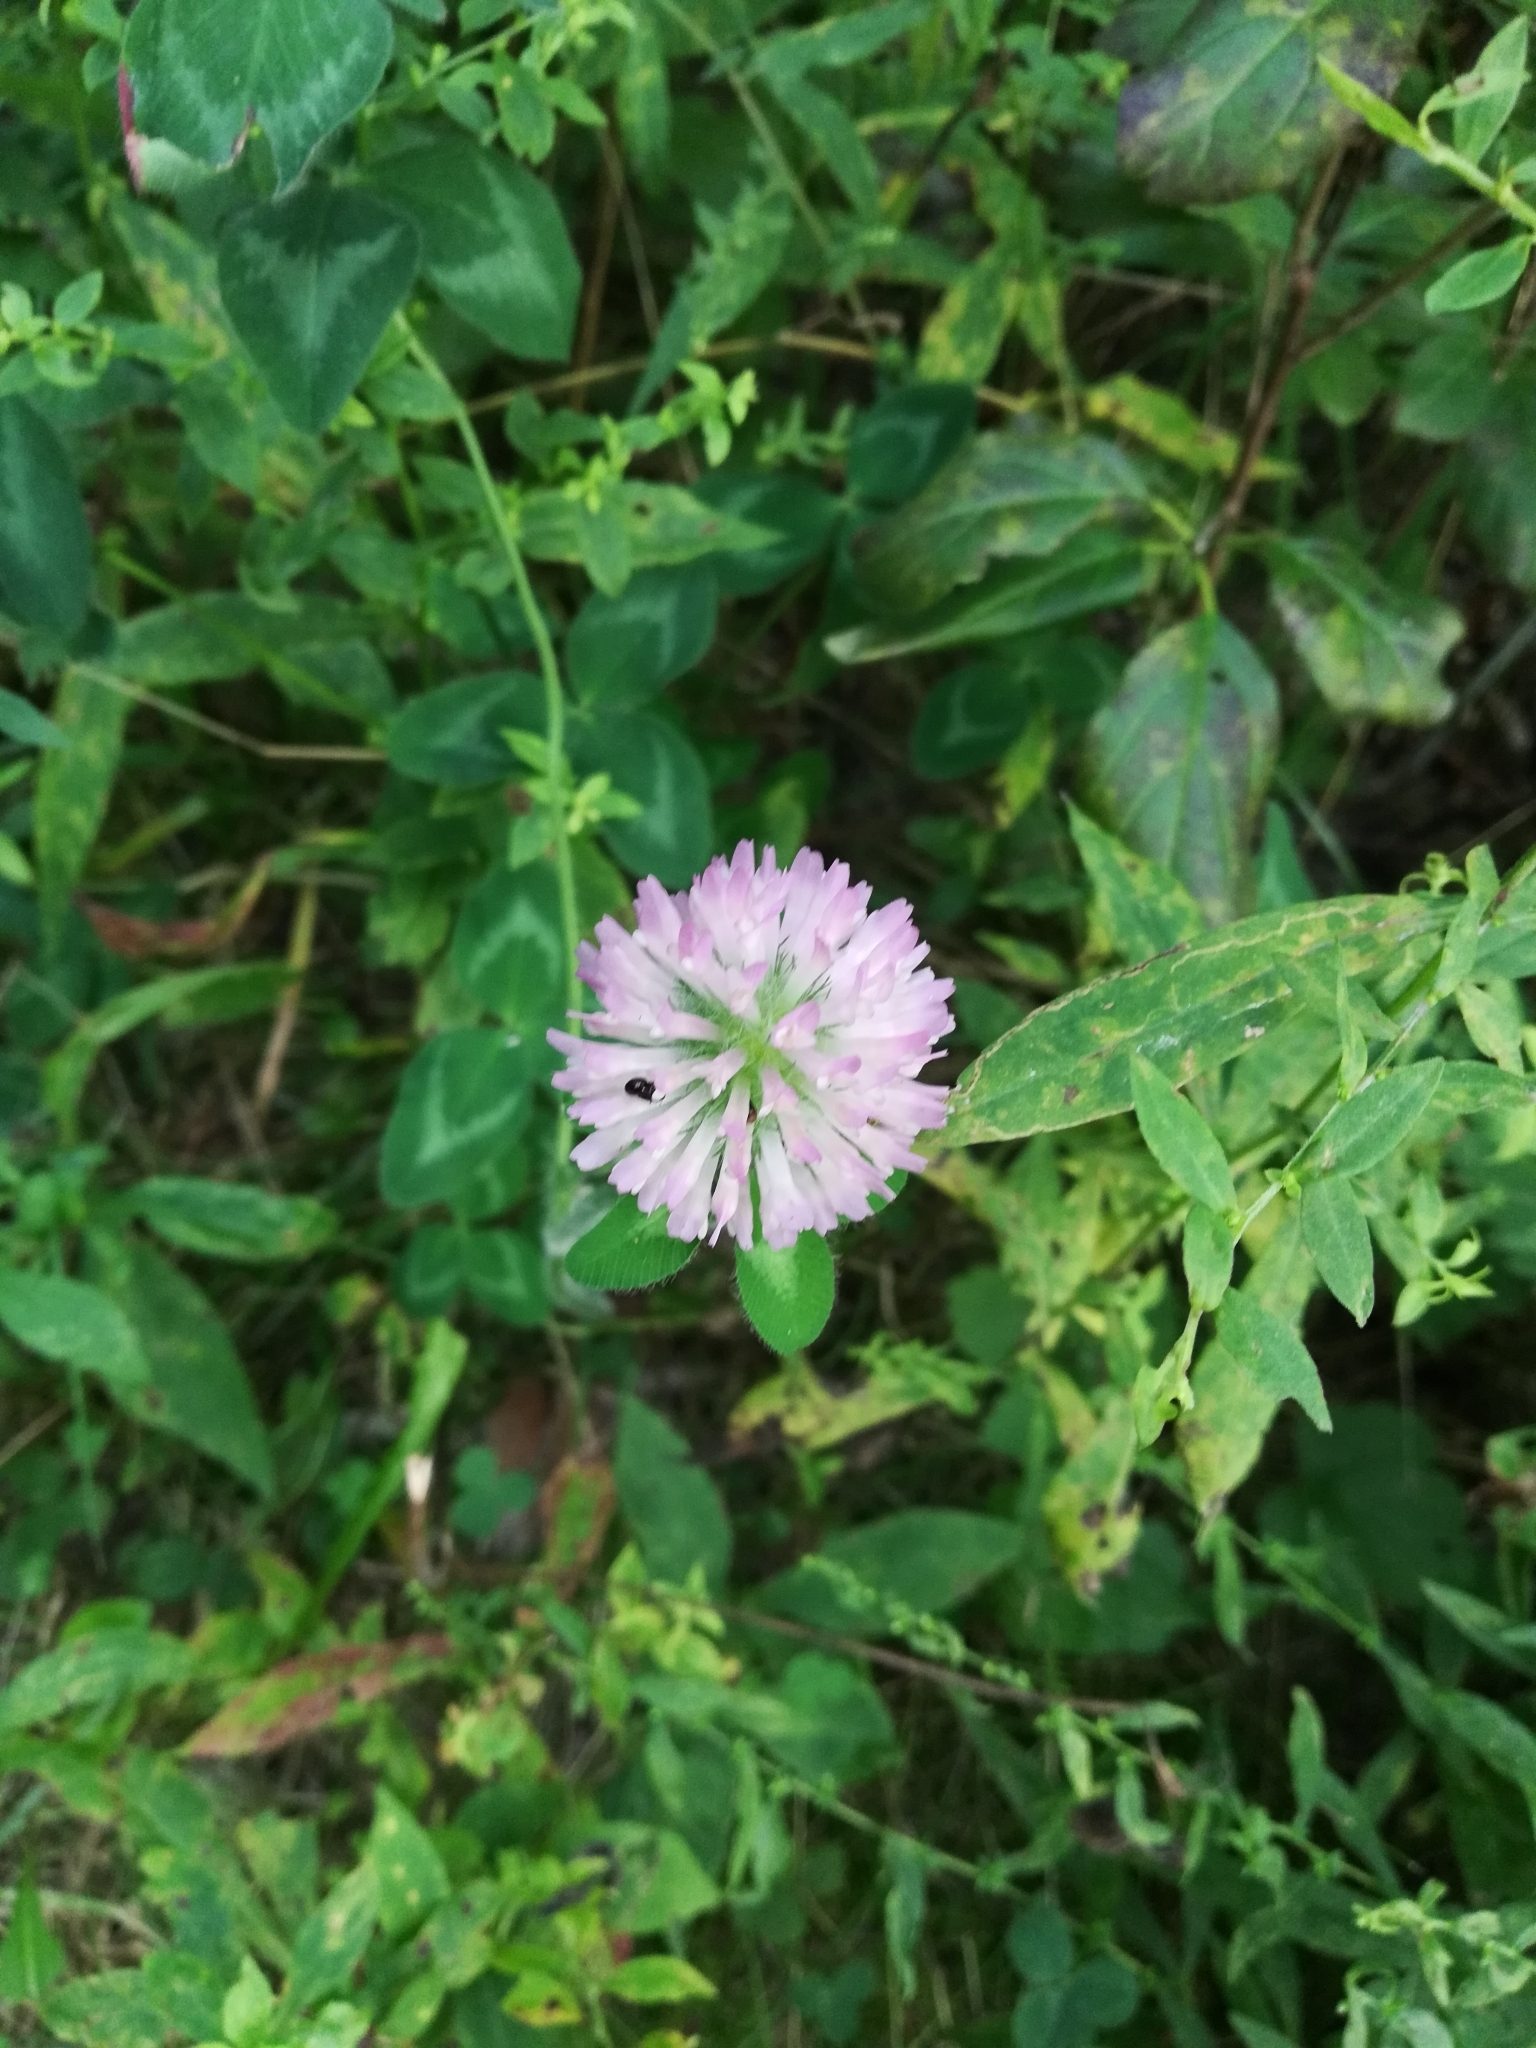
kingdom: Plantae
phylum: Tracheophyta
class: Magnoliopsida
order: Fabales
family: Fabaceae
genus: Trifolium
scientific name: Trifolium pratense
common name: Red clover
